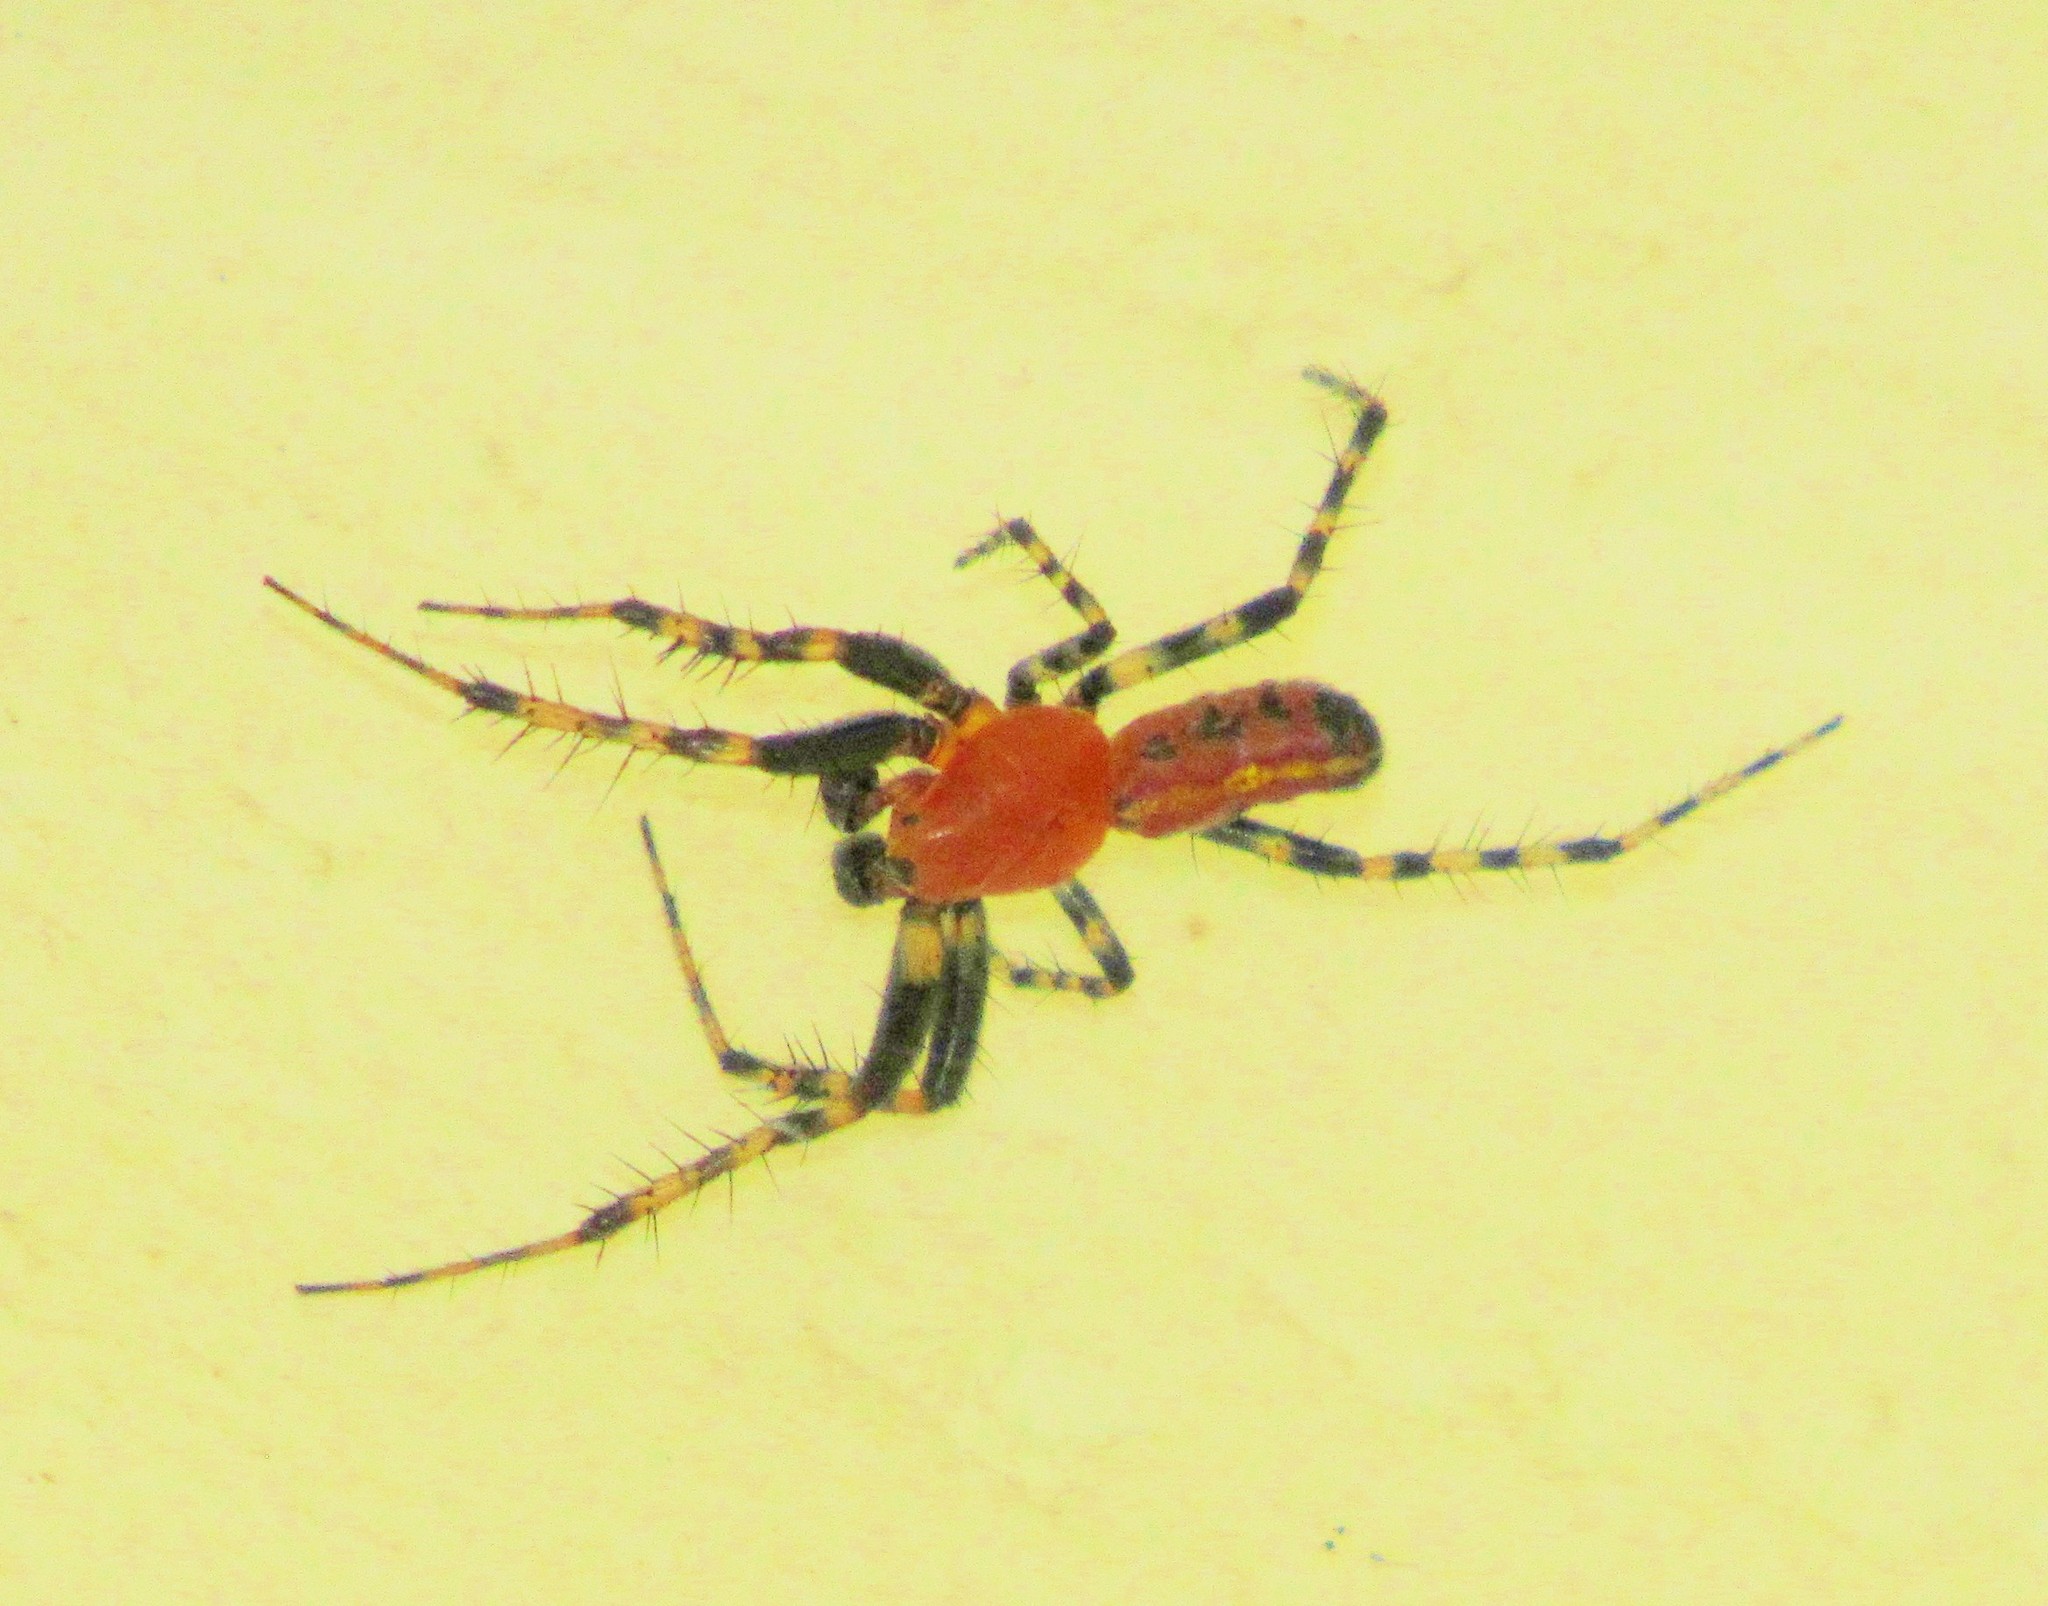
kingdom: Animalia
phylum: Arthropoda
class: Arachnida
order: Araneae
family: Araneidae
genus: Alpaida
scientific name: Alpaida grayi
